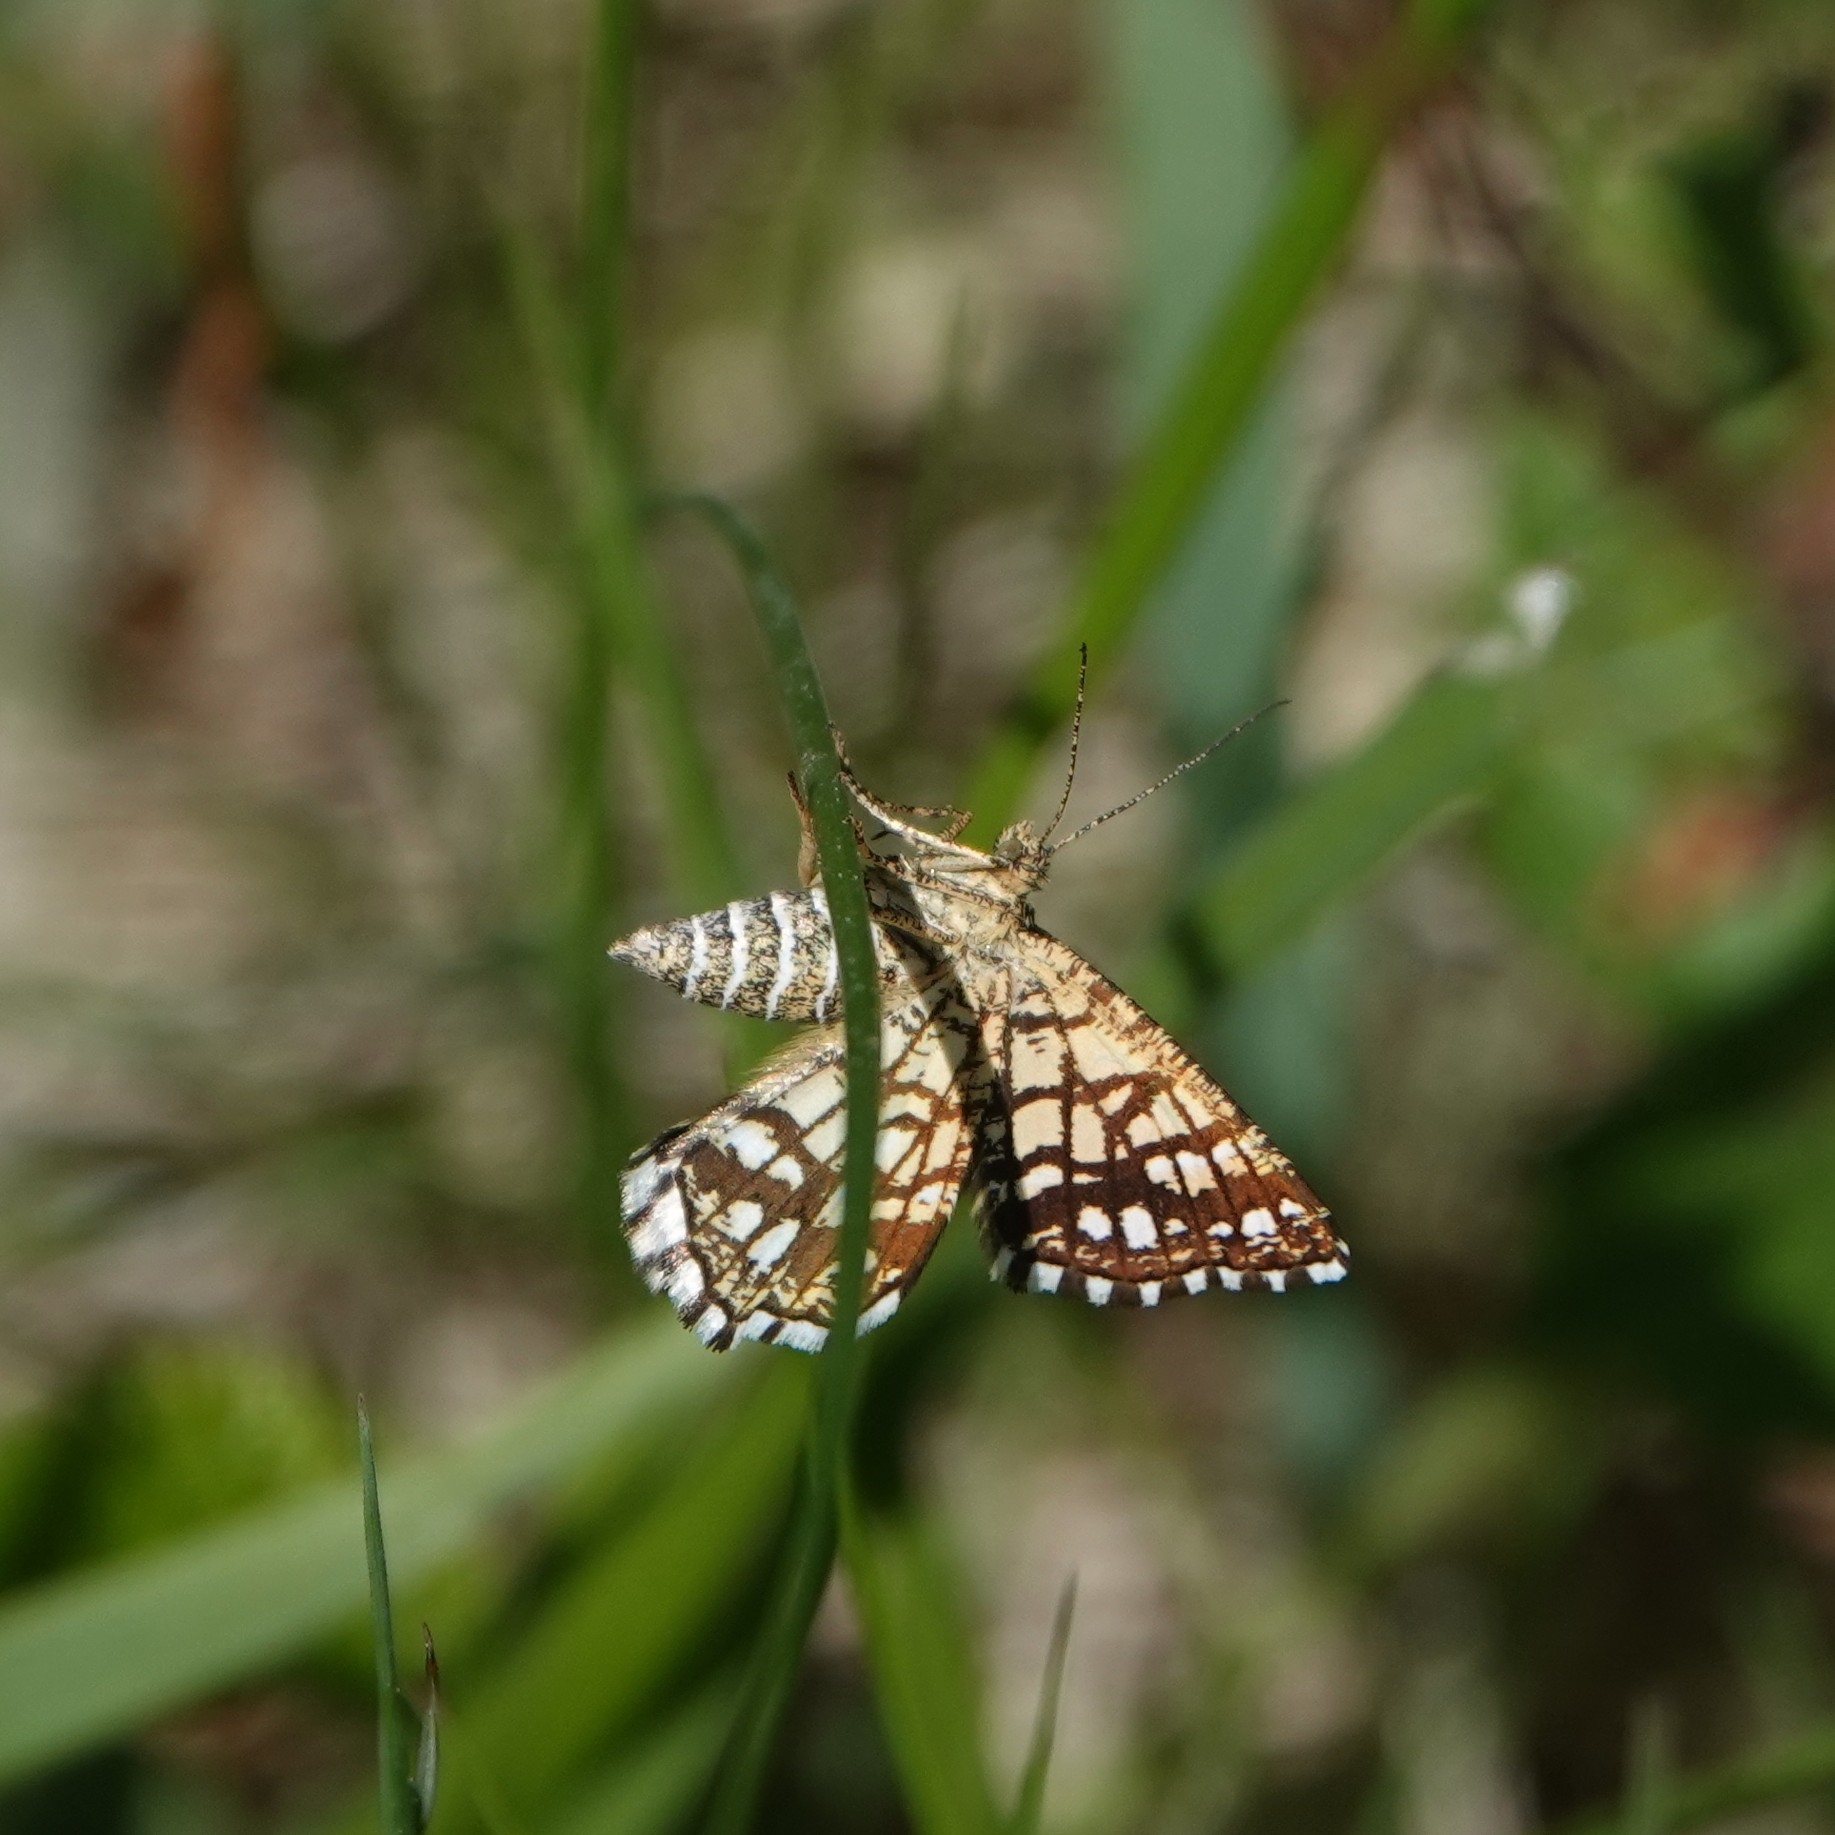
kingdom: Animalia
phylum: Arthropoda
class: Insecta
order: Lepidoptera
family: Geometridae
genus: Chiasmia
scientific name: Chiasmia clathrata
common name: Latticed heath
